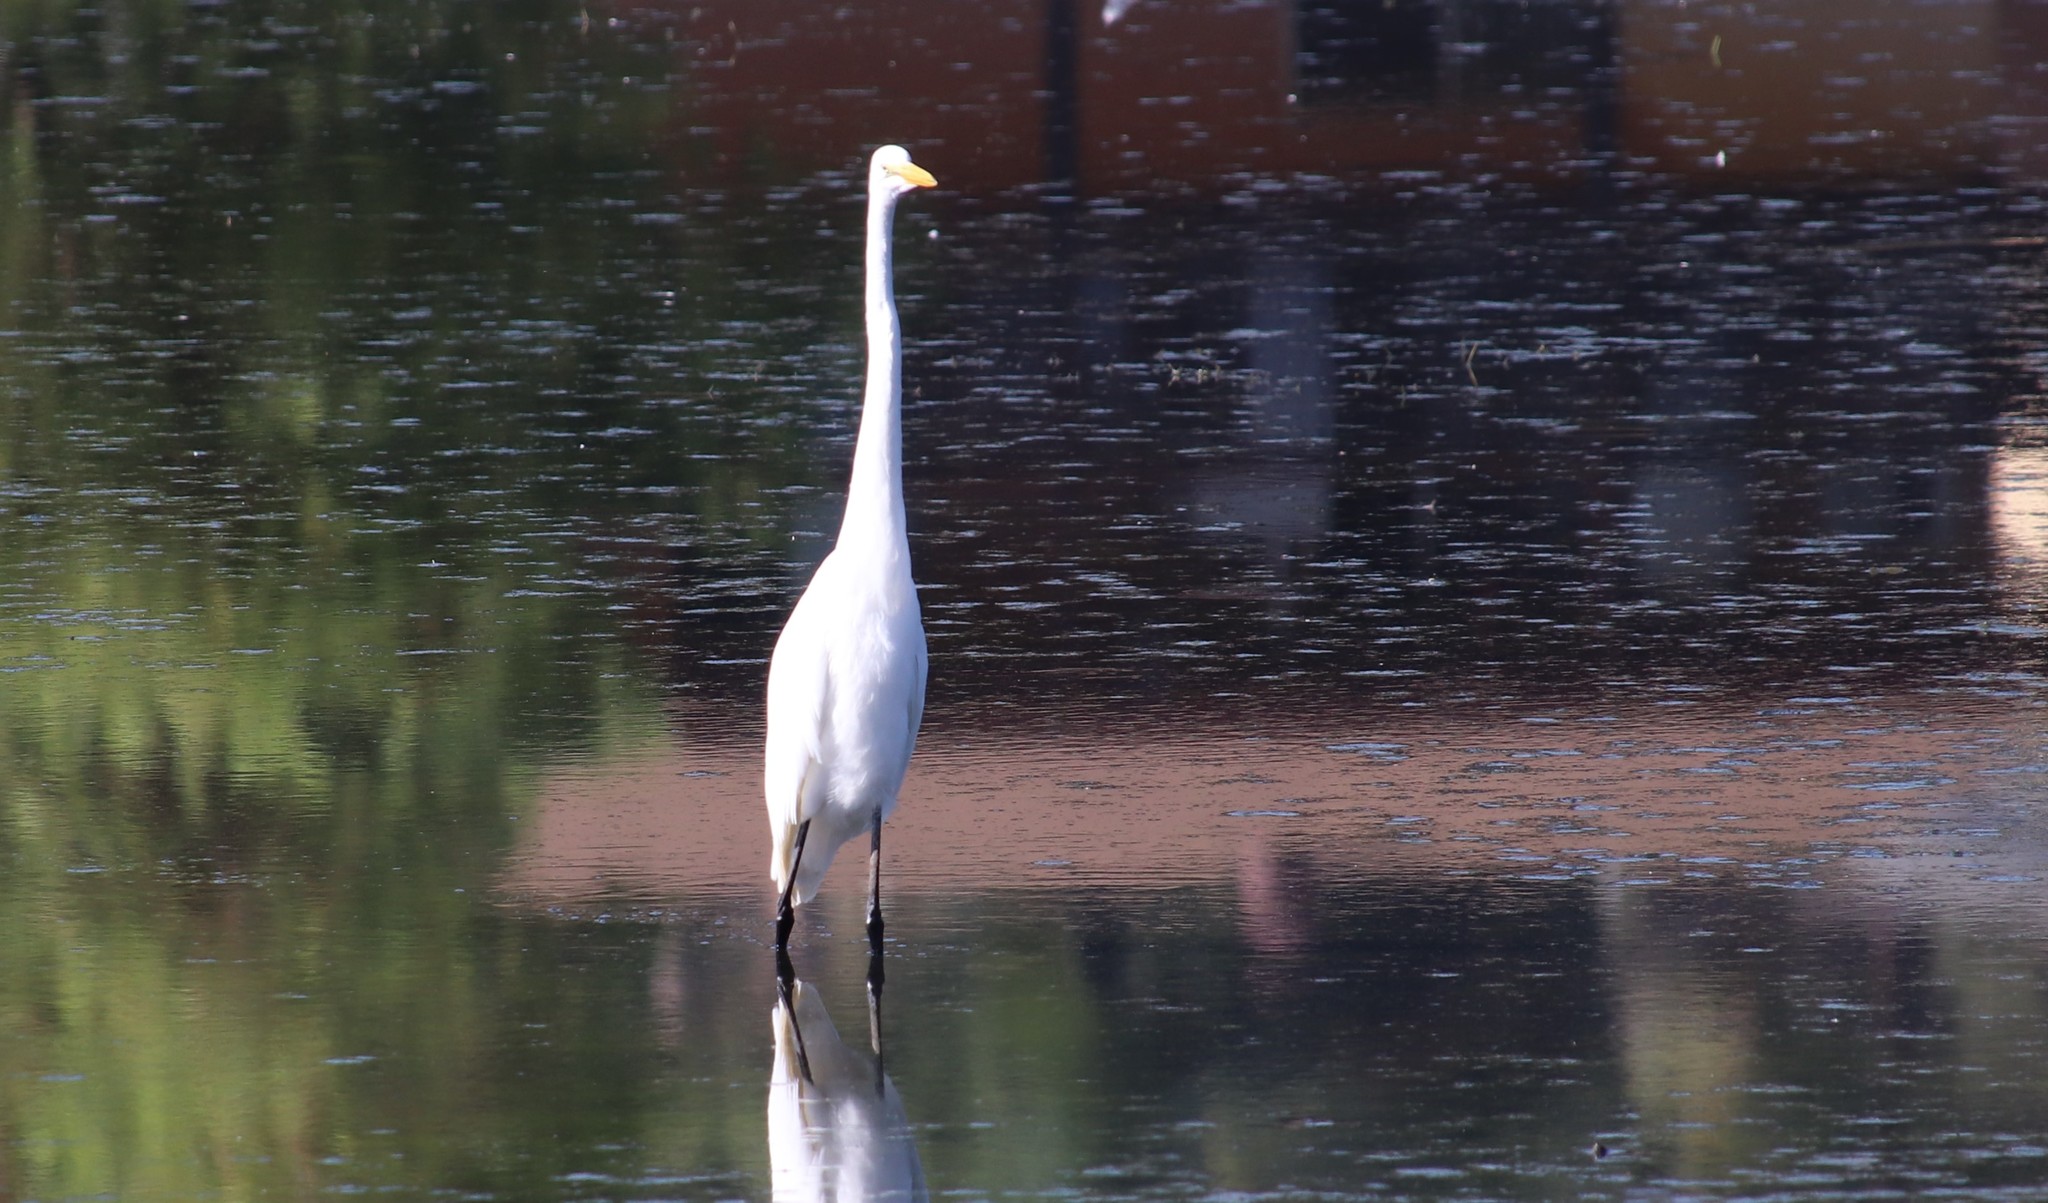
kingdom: Animalia
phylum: Chordata
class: Aves
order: Pelecaniformes
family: Ardeidae
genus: Ardea
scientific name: Ardea alba
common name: Great egret
